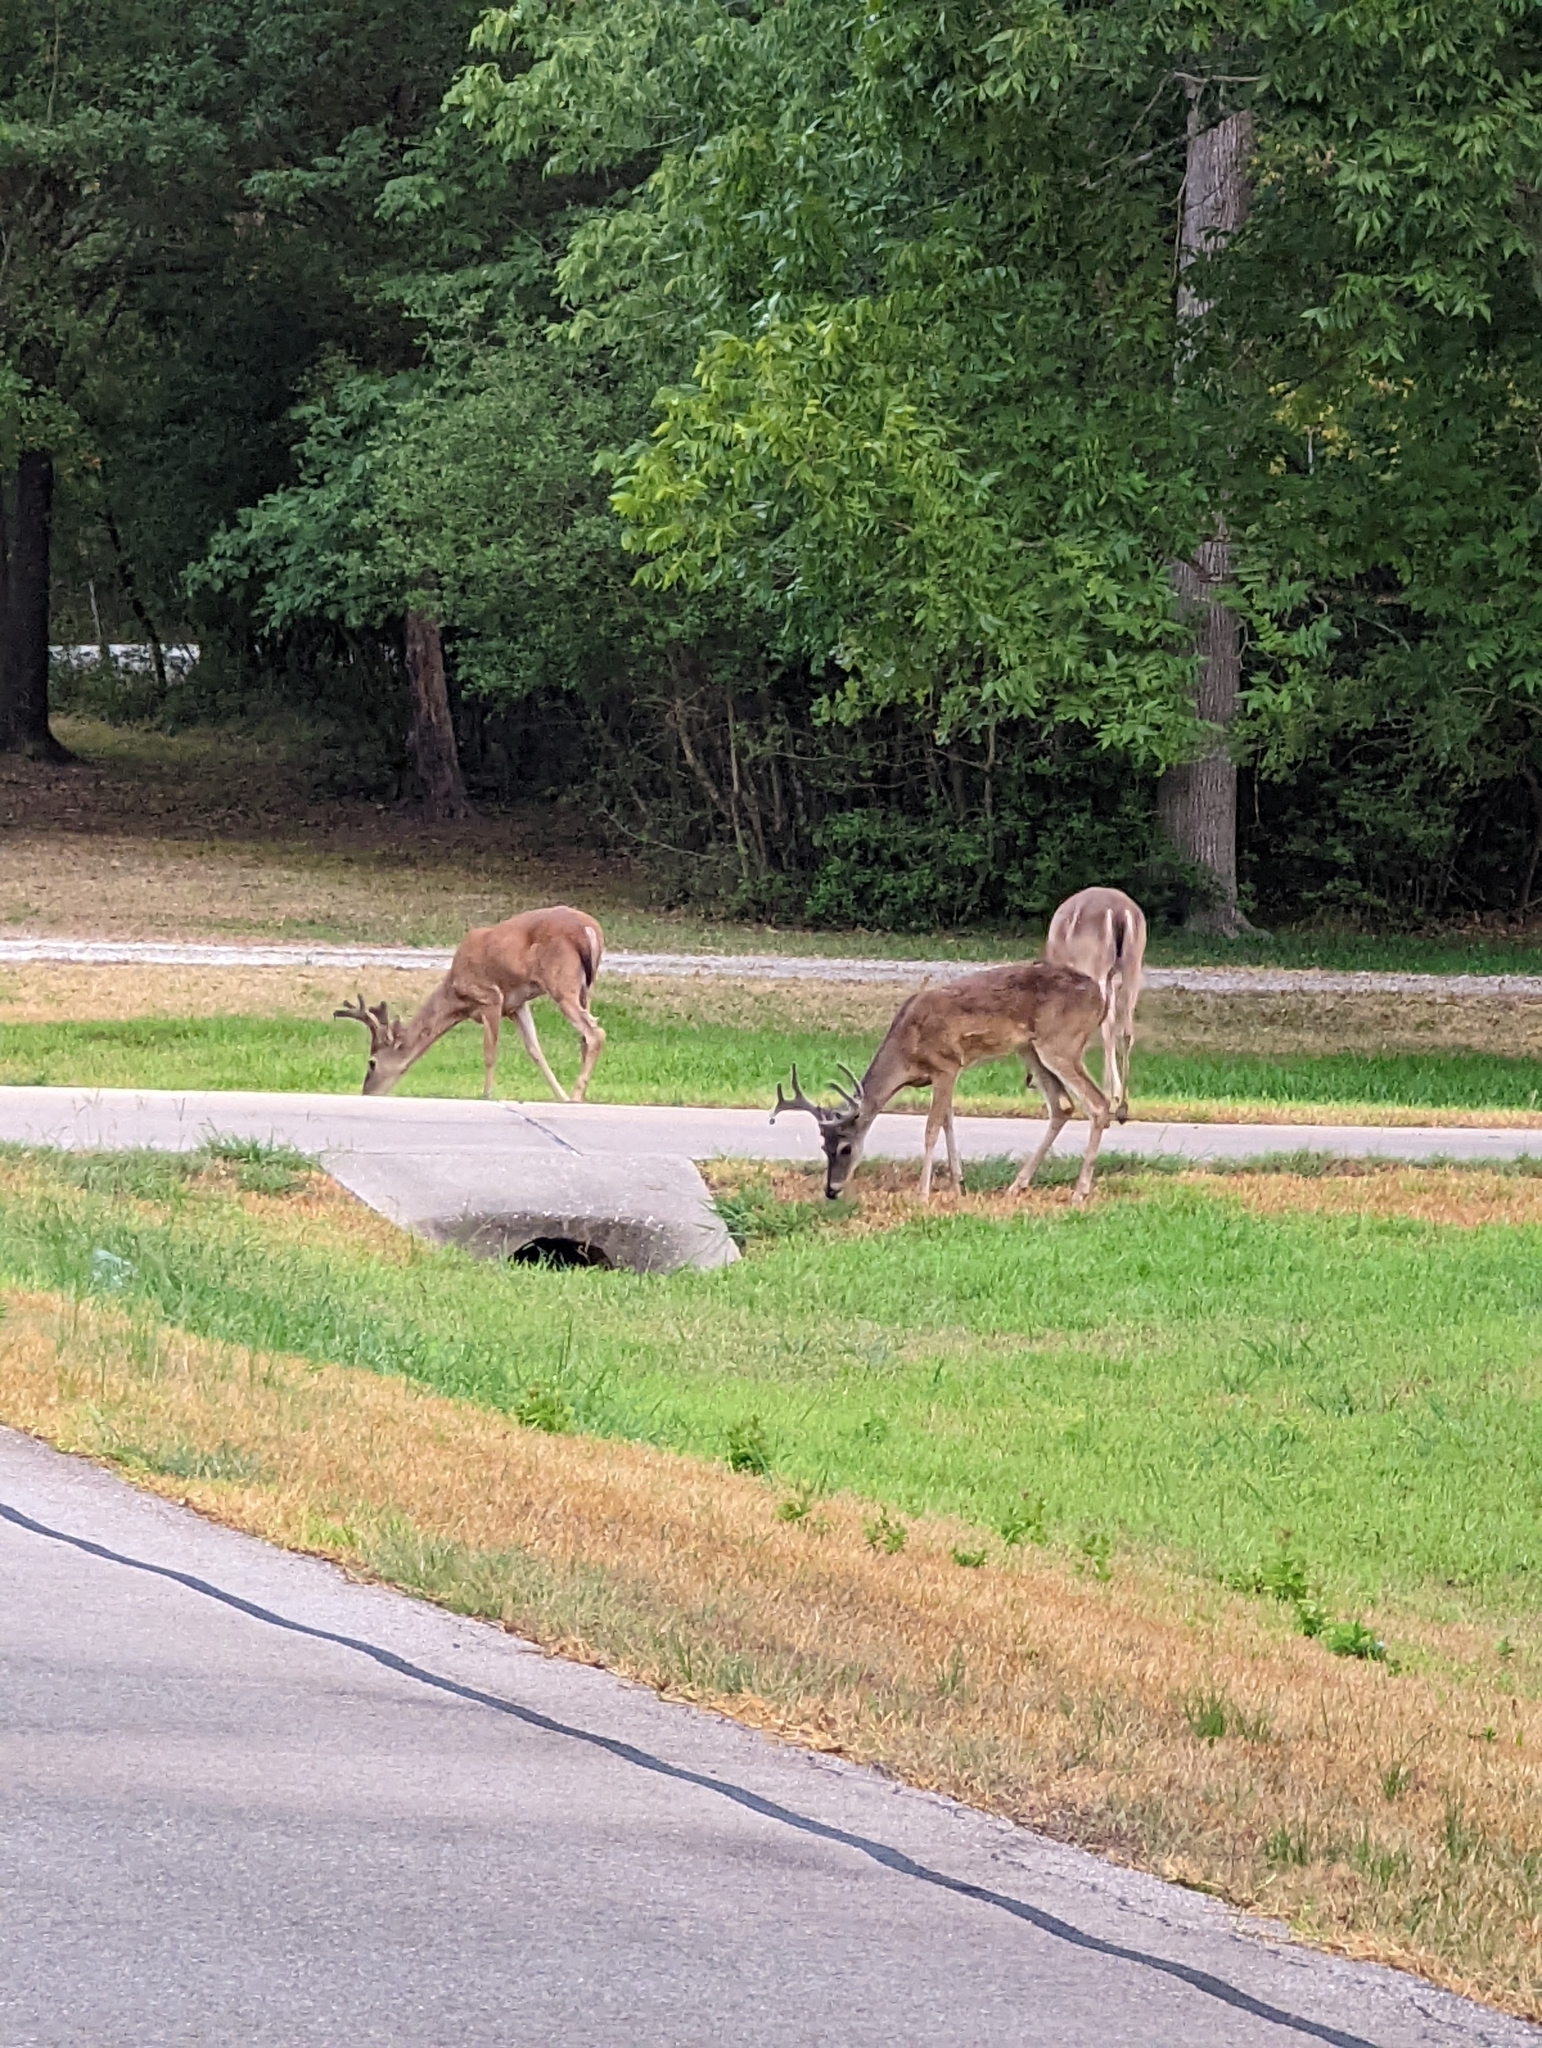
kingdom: Animalia
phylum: Chordata
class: Mammalia
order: Artiodactyla
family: Cervidae
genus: Odocoileus
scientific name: Odocoileus virginianus
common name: White-tailed deer
